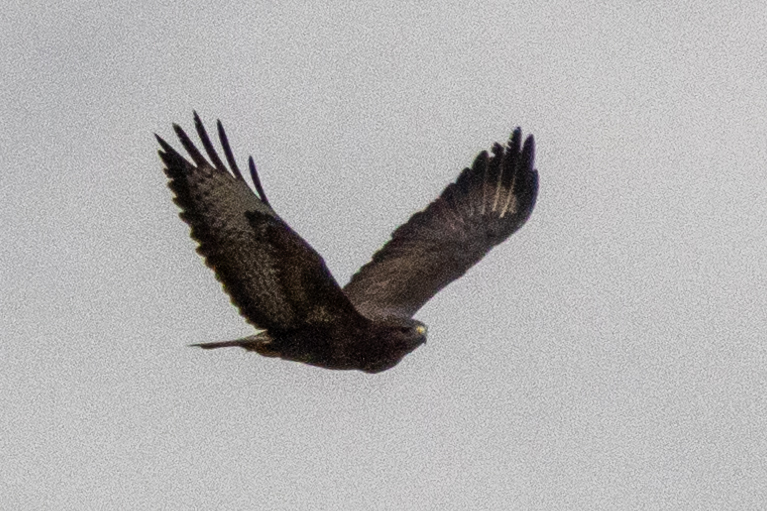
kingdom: Animalia
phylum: Chordata
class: Aves
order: Accipitriformes
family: Accipitridae
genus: Buteo
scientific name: Buteo buteo
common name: Common buzzard
